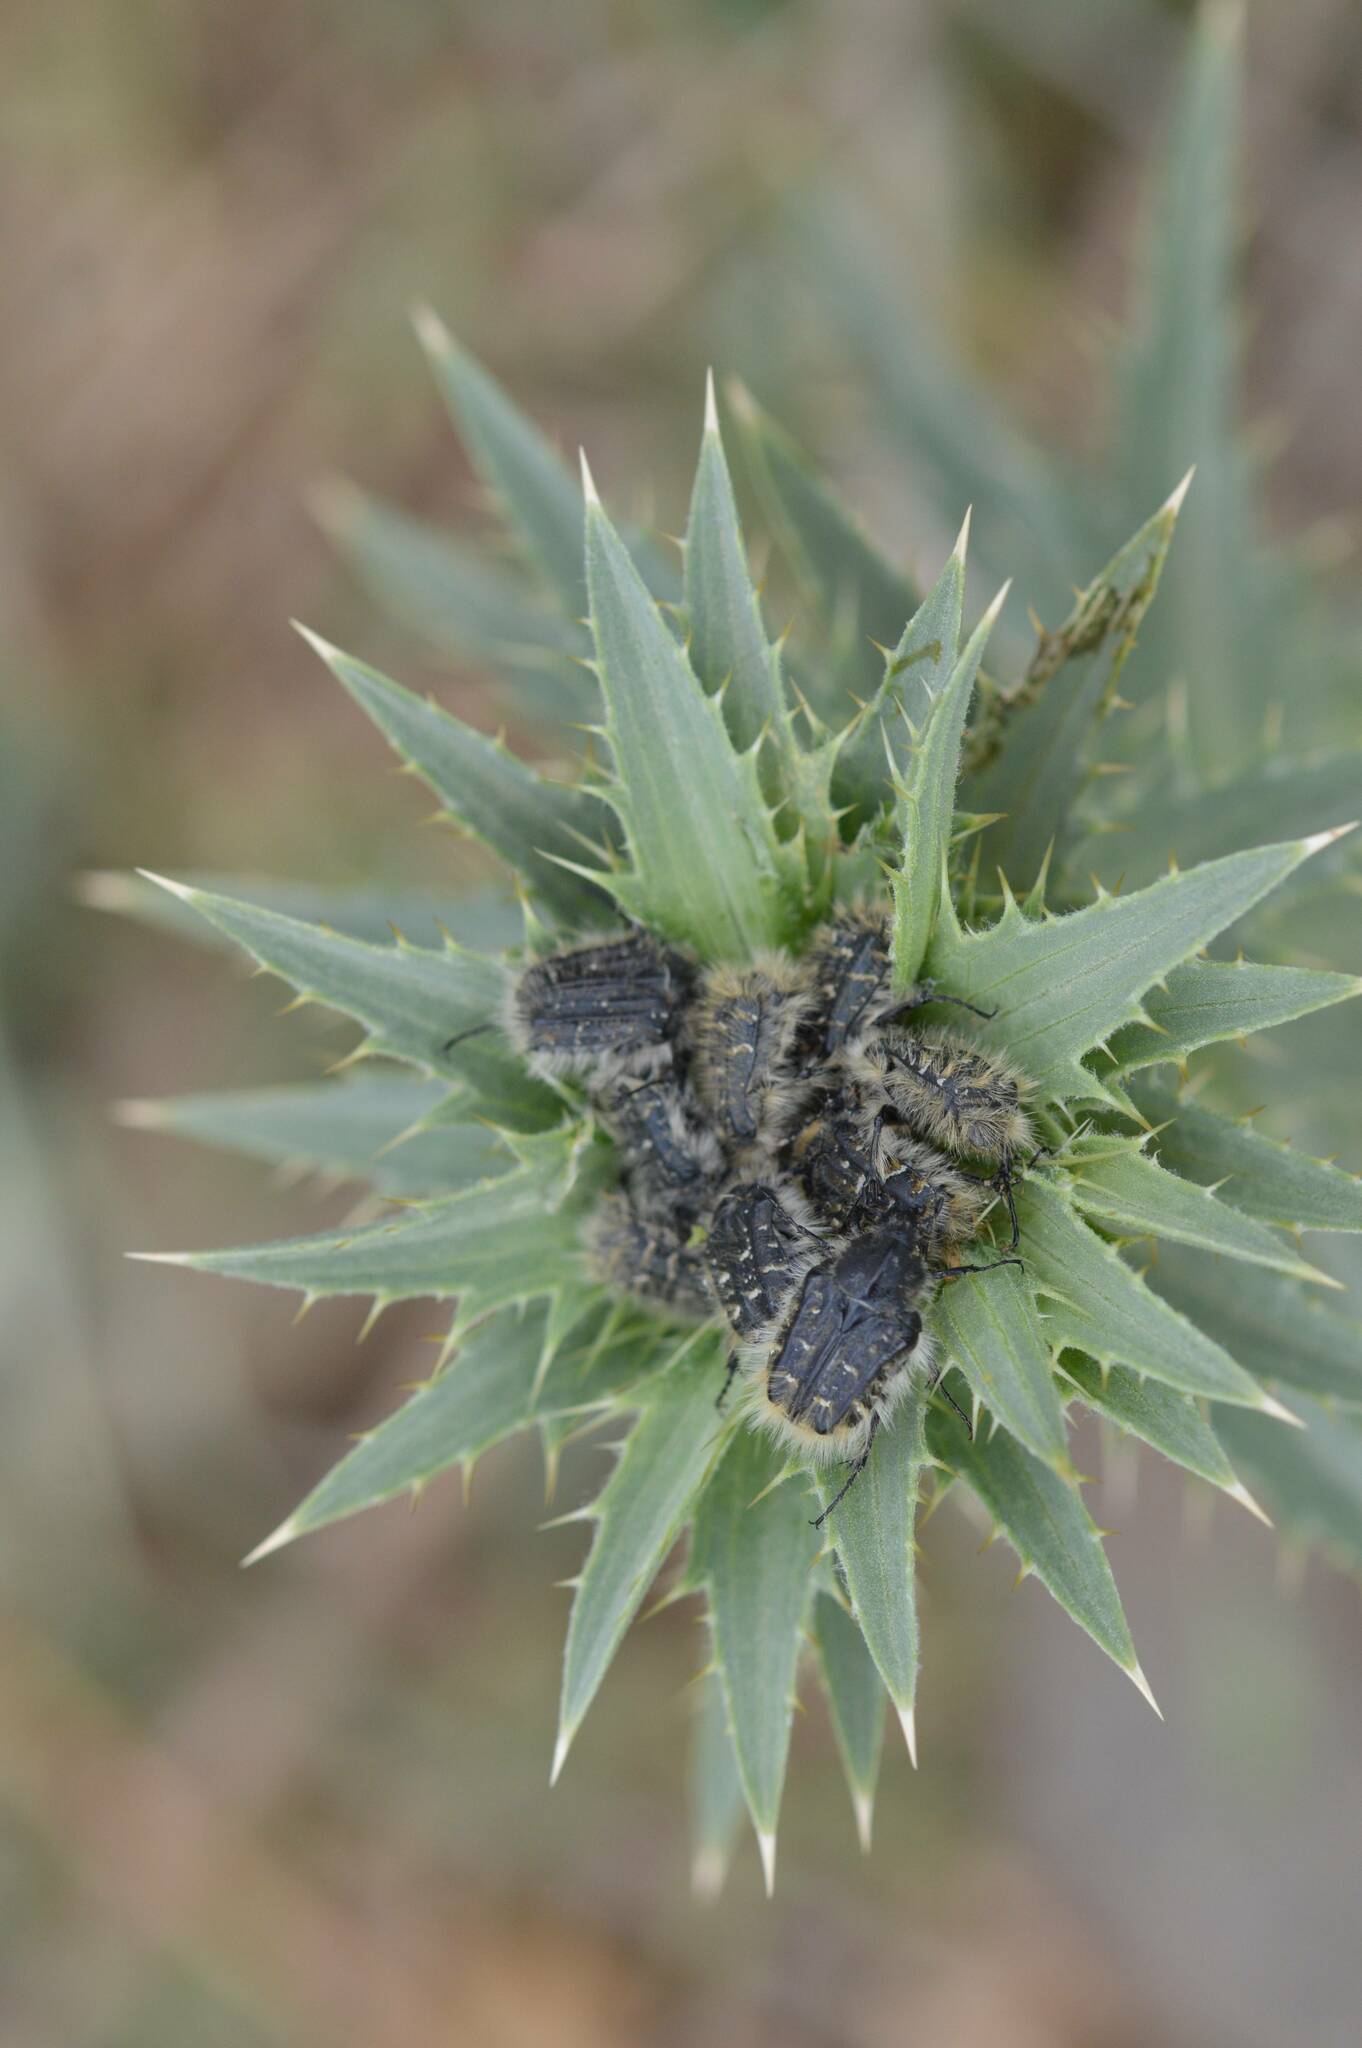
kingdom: Animalia
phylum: Arthropoda
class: Insecta
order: Coleoptera
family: Scarabaeidae
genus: Tropinota
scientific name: Tropinota squalida
